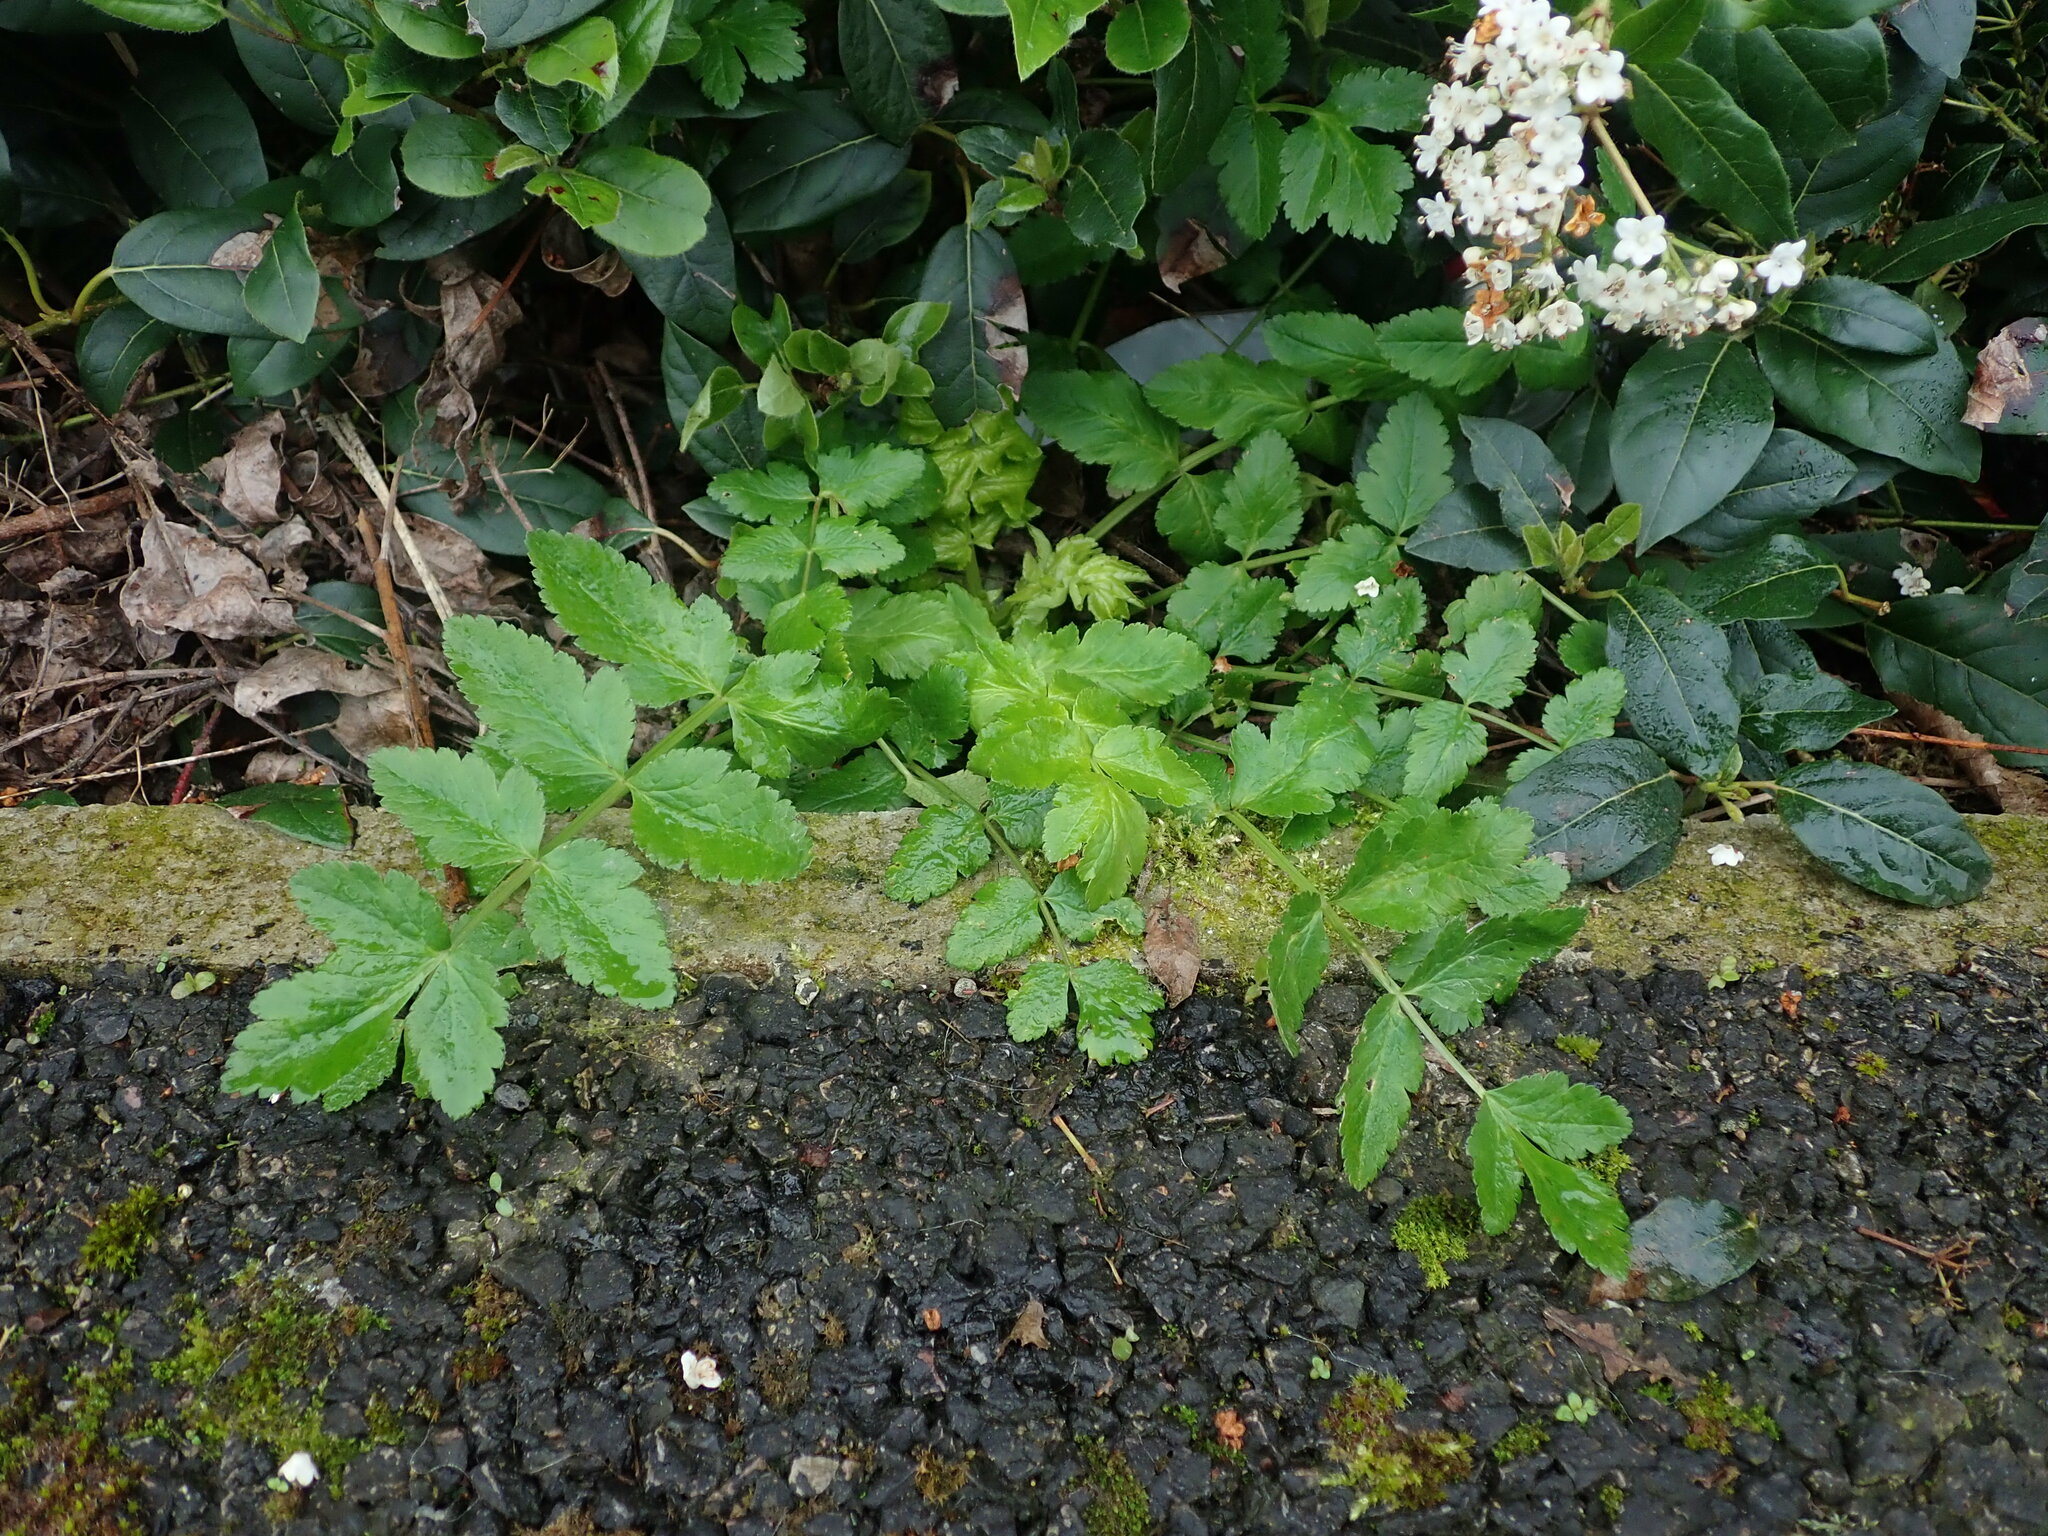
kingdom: Plantae
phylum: Tracheophyta
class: Magnoliopsida
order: Apiales
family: Apiaceae
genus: Sison
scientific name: Sison amomum
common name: Stone-parsley
